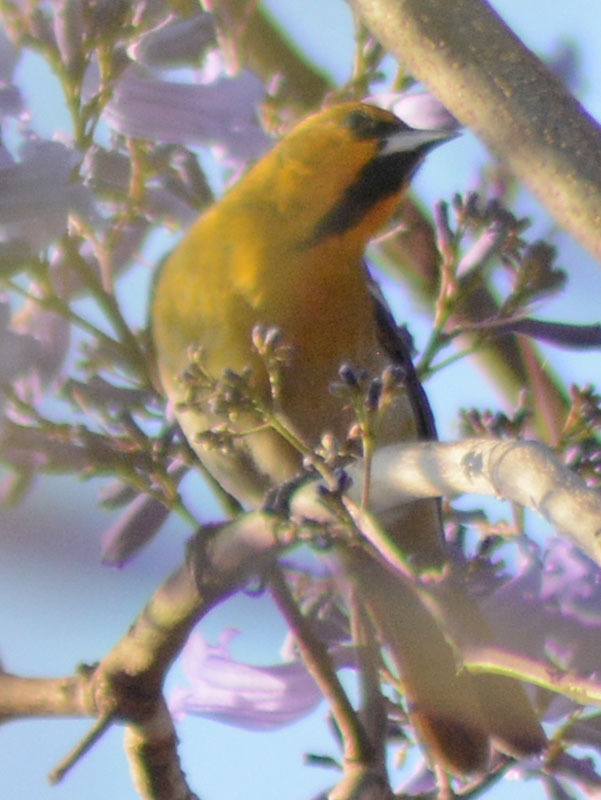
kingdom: Animalia
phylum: Chordata
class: Aves
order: Passeriformes
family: Icteridae
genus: Icterus
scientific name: Icterus bullockii
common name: Bullock's oriole
